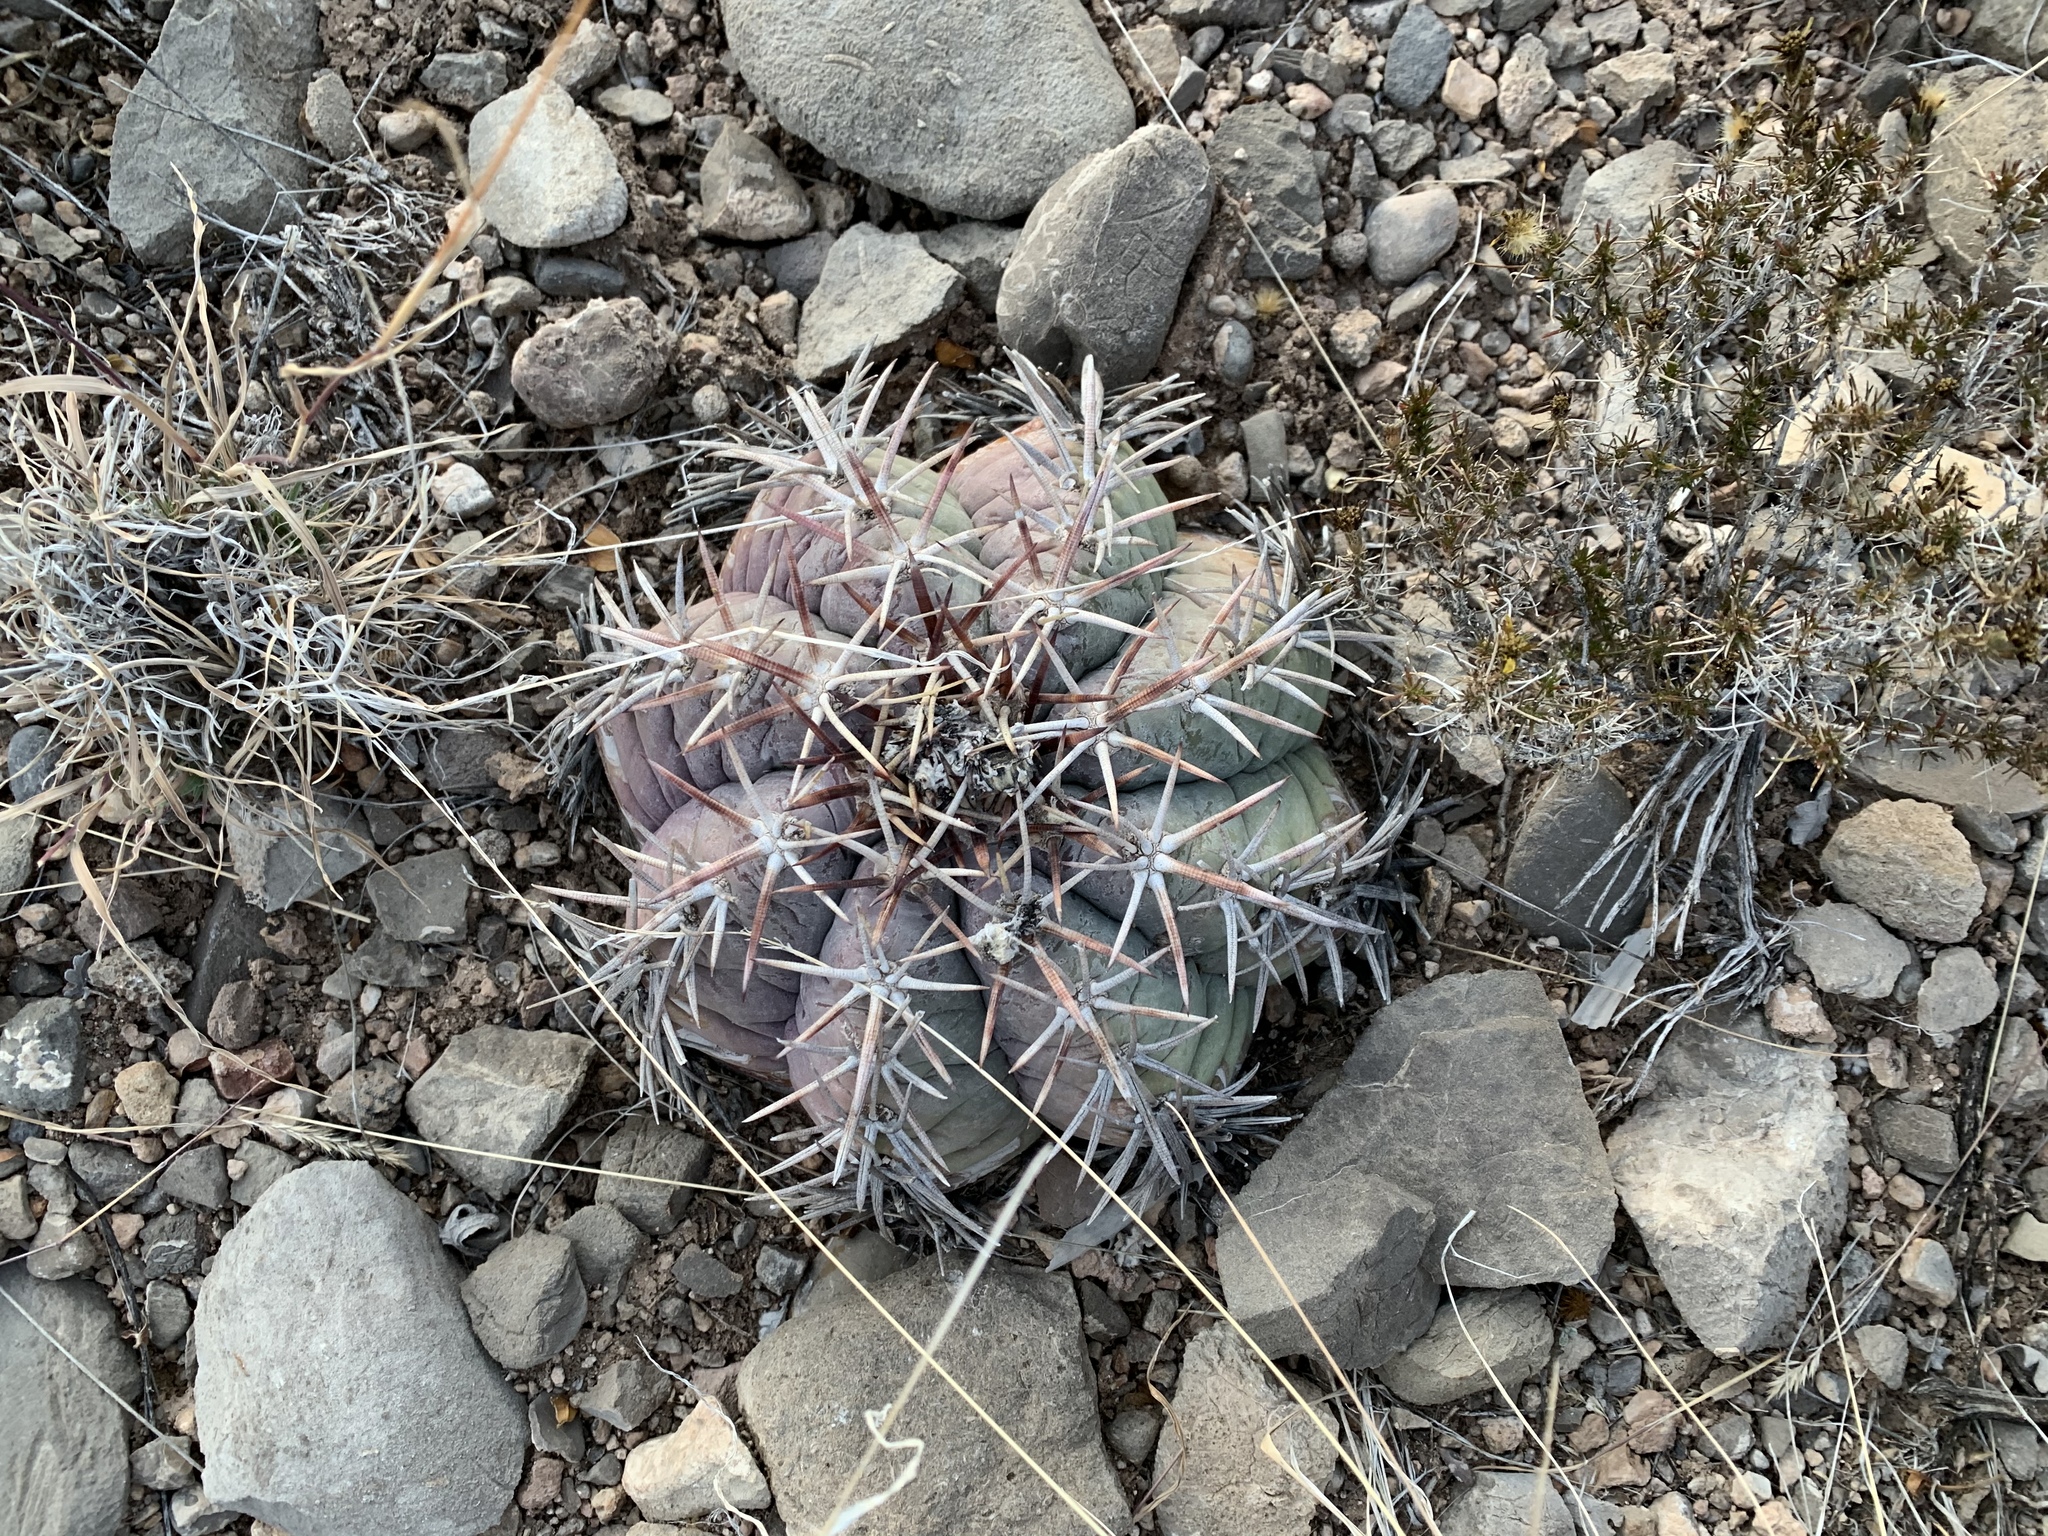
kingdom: Plantae
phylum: Tracheophyta
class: Magnoliopsida
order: Caryophyllales
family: Cactaceae
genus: Echinocactus
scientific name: Echinocactus horizonthalonius
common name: Devilshead
